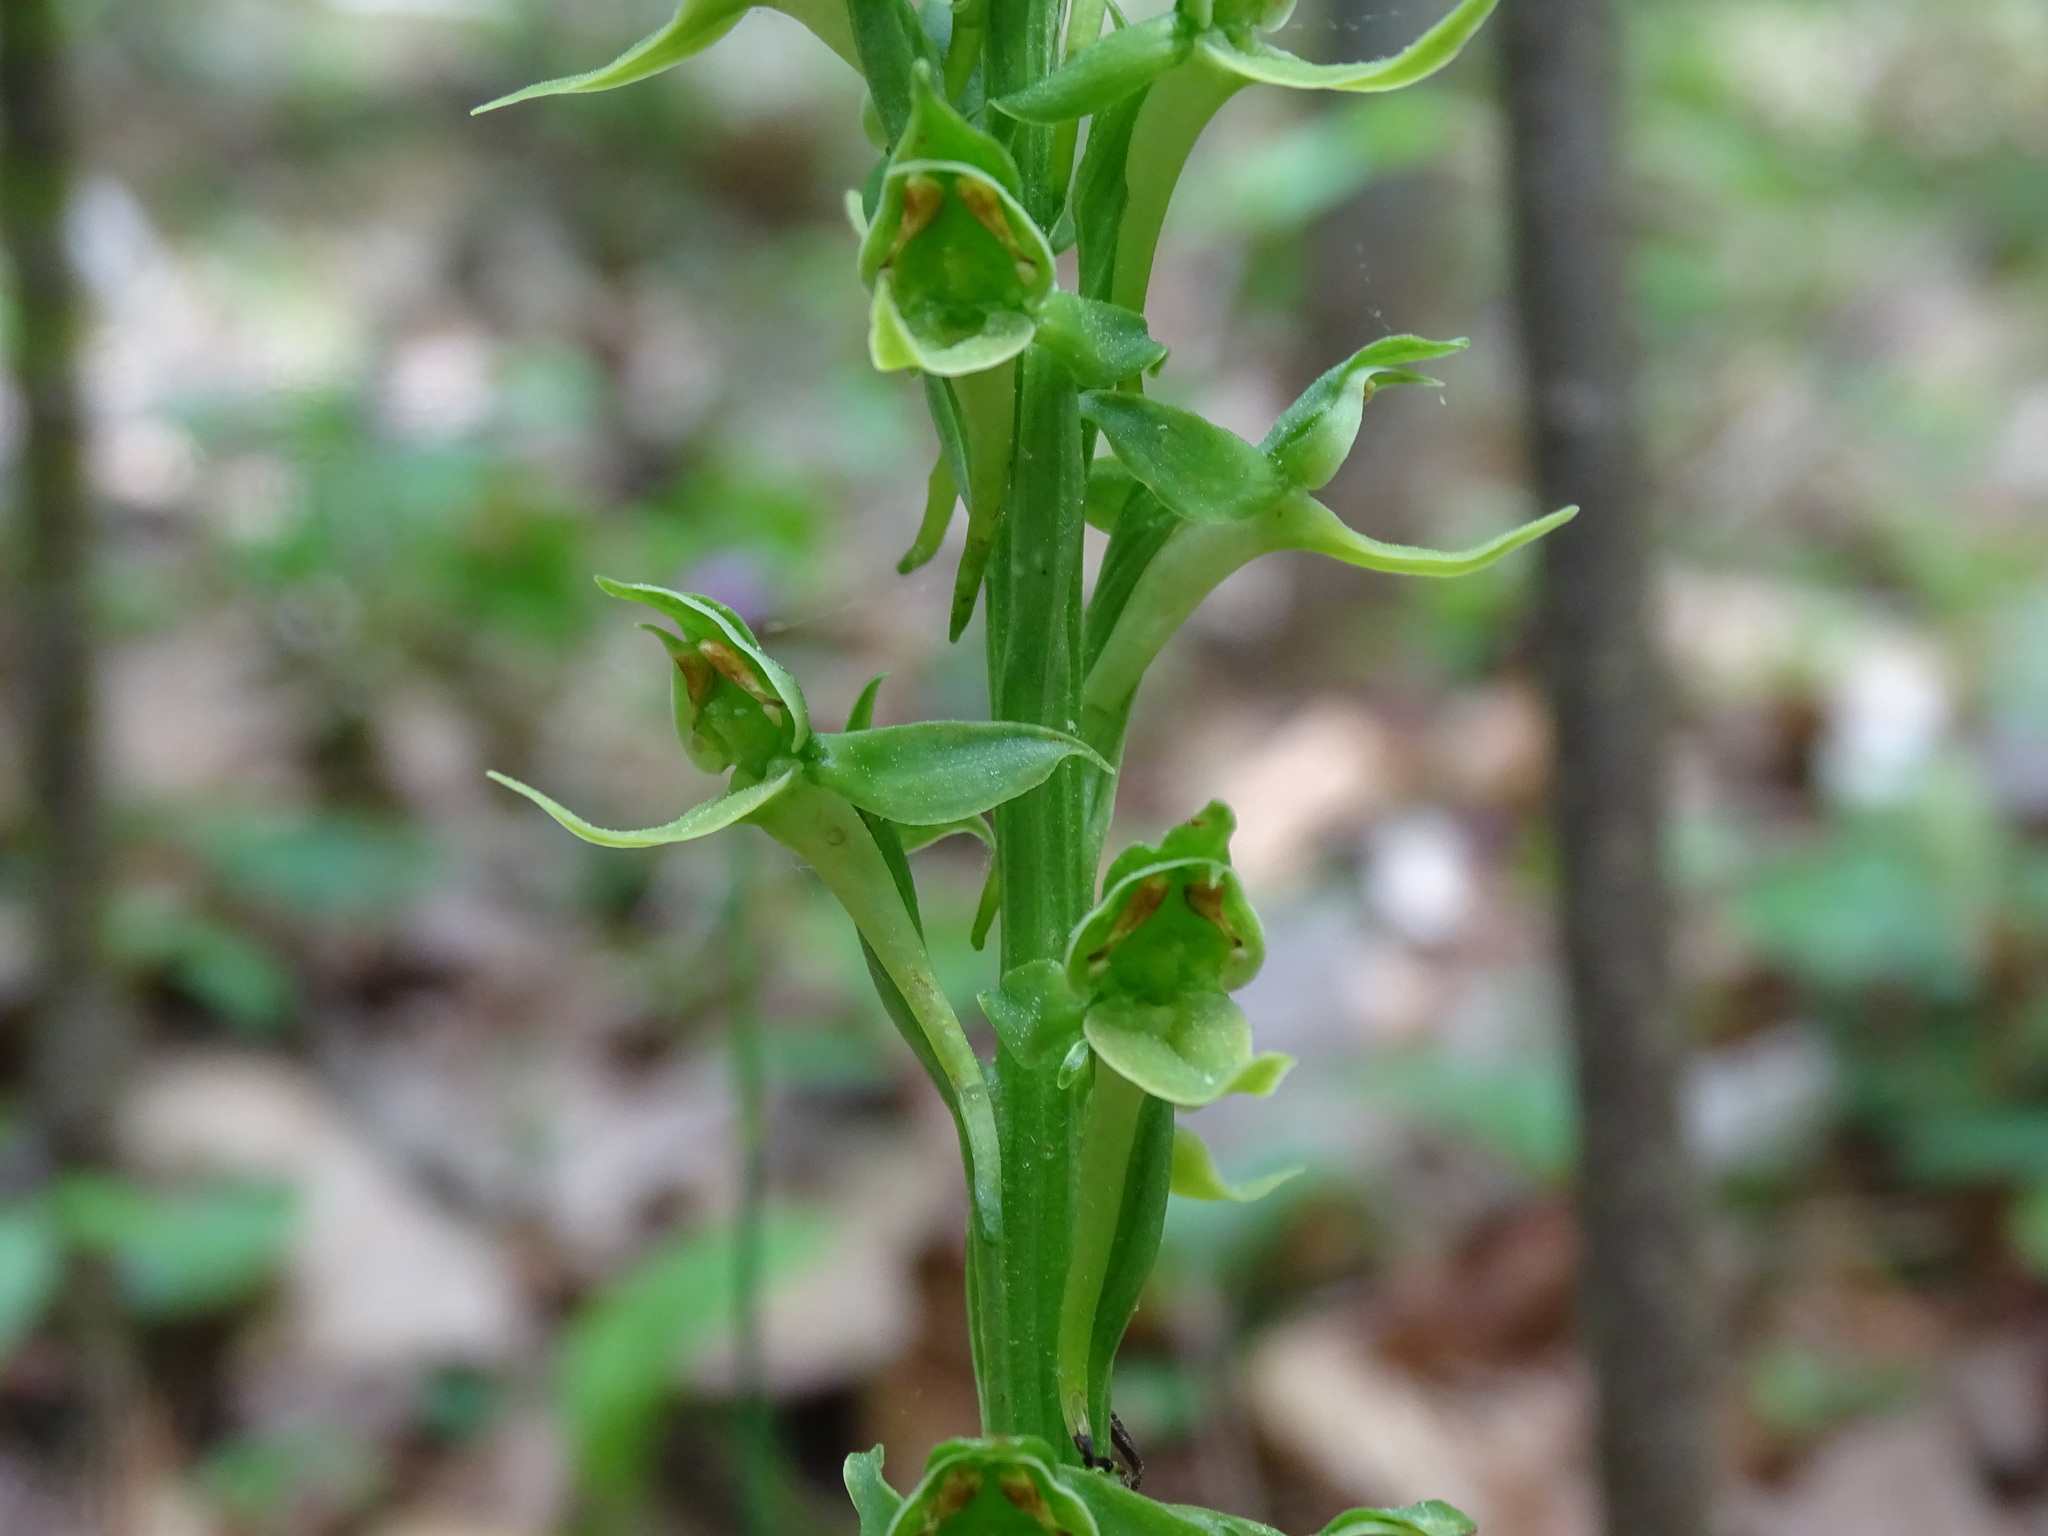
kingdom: Plantae
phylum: Tracheophyta
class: Liliopsida
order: Asparagales
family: Orchidaceae
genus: Platanthera
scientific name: Platanthera hookeri
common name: Hooker's orchid
